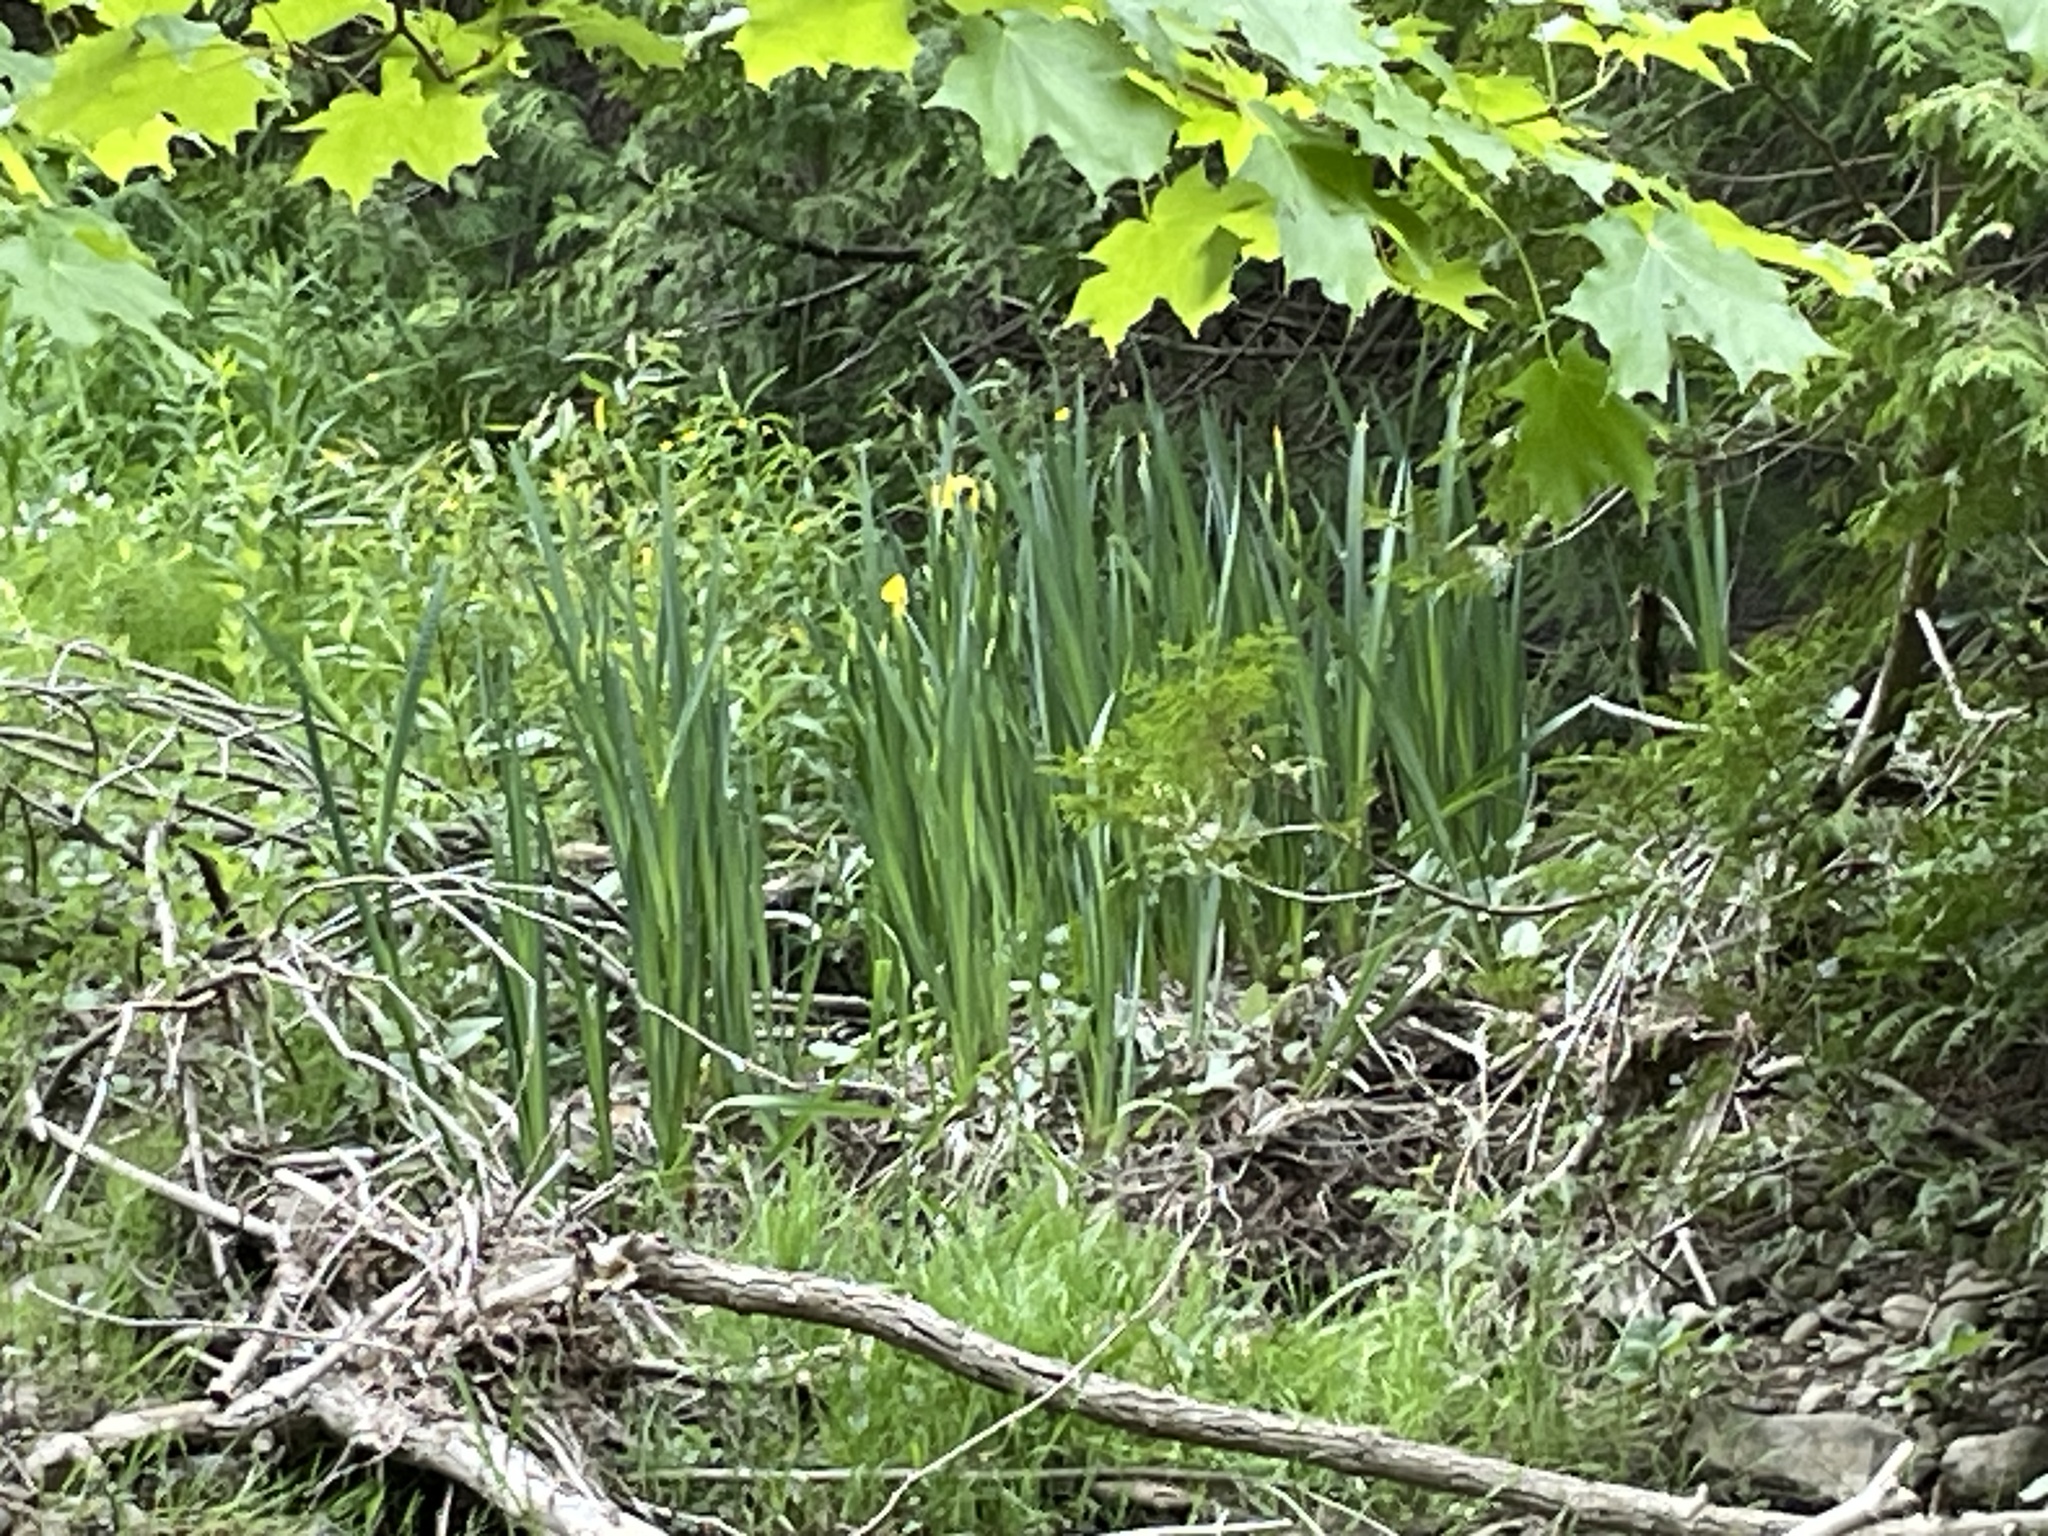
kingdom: Plantae
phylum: Tracheophyta
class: Liliopsida
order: Asparagales
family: Iridaceae
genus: Iris
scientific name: Iris pseudacorus
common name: Yellow flag
